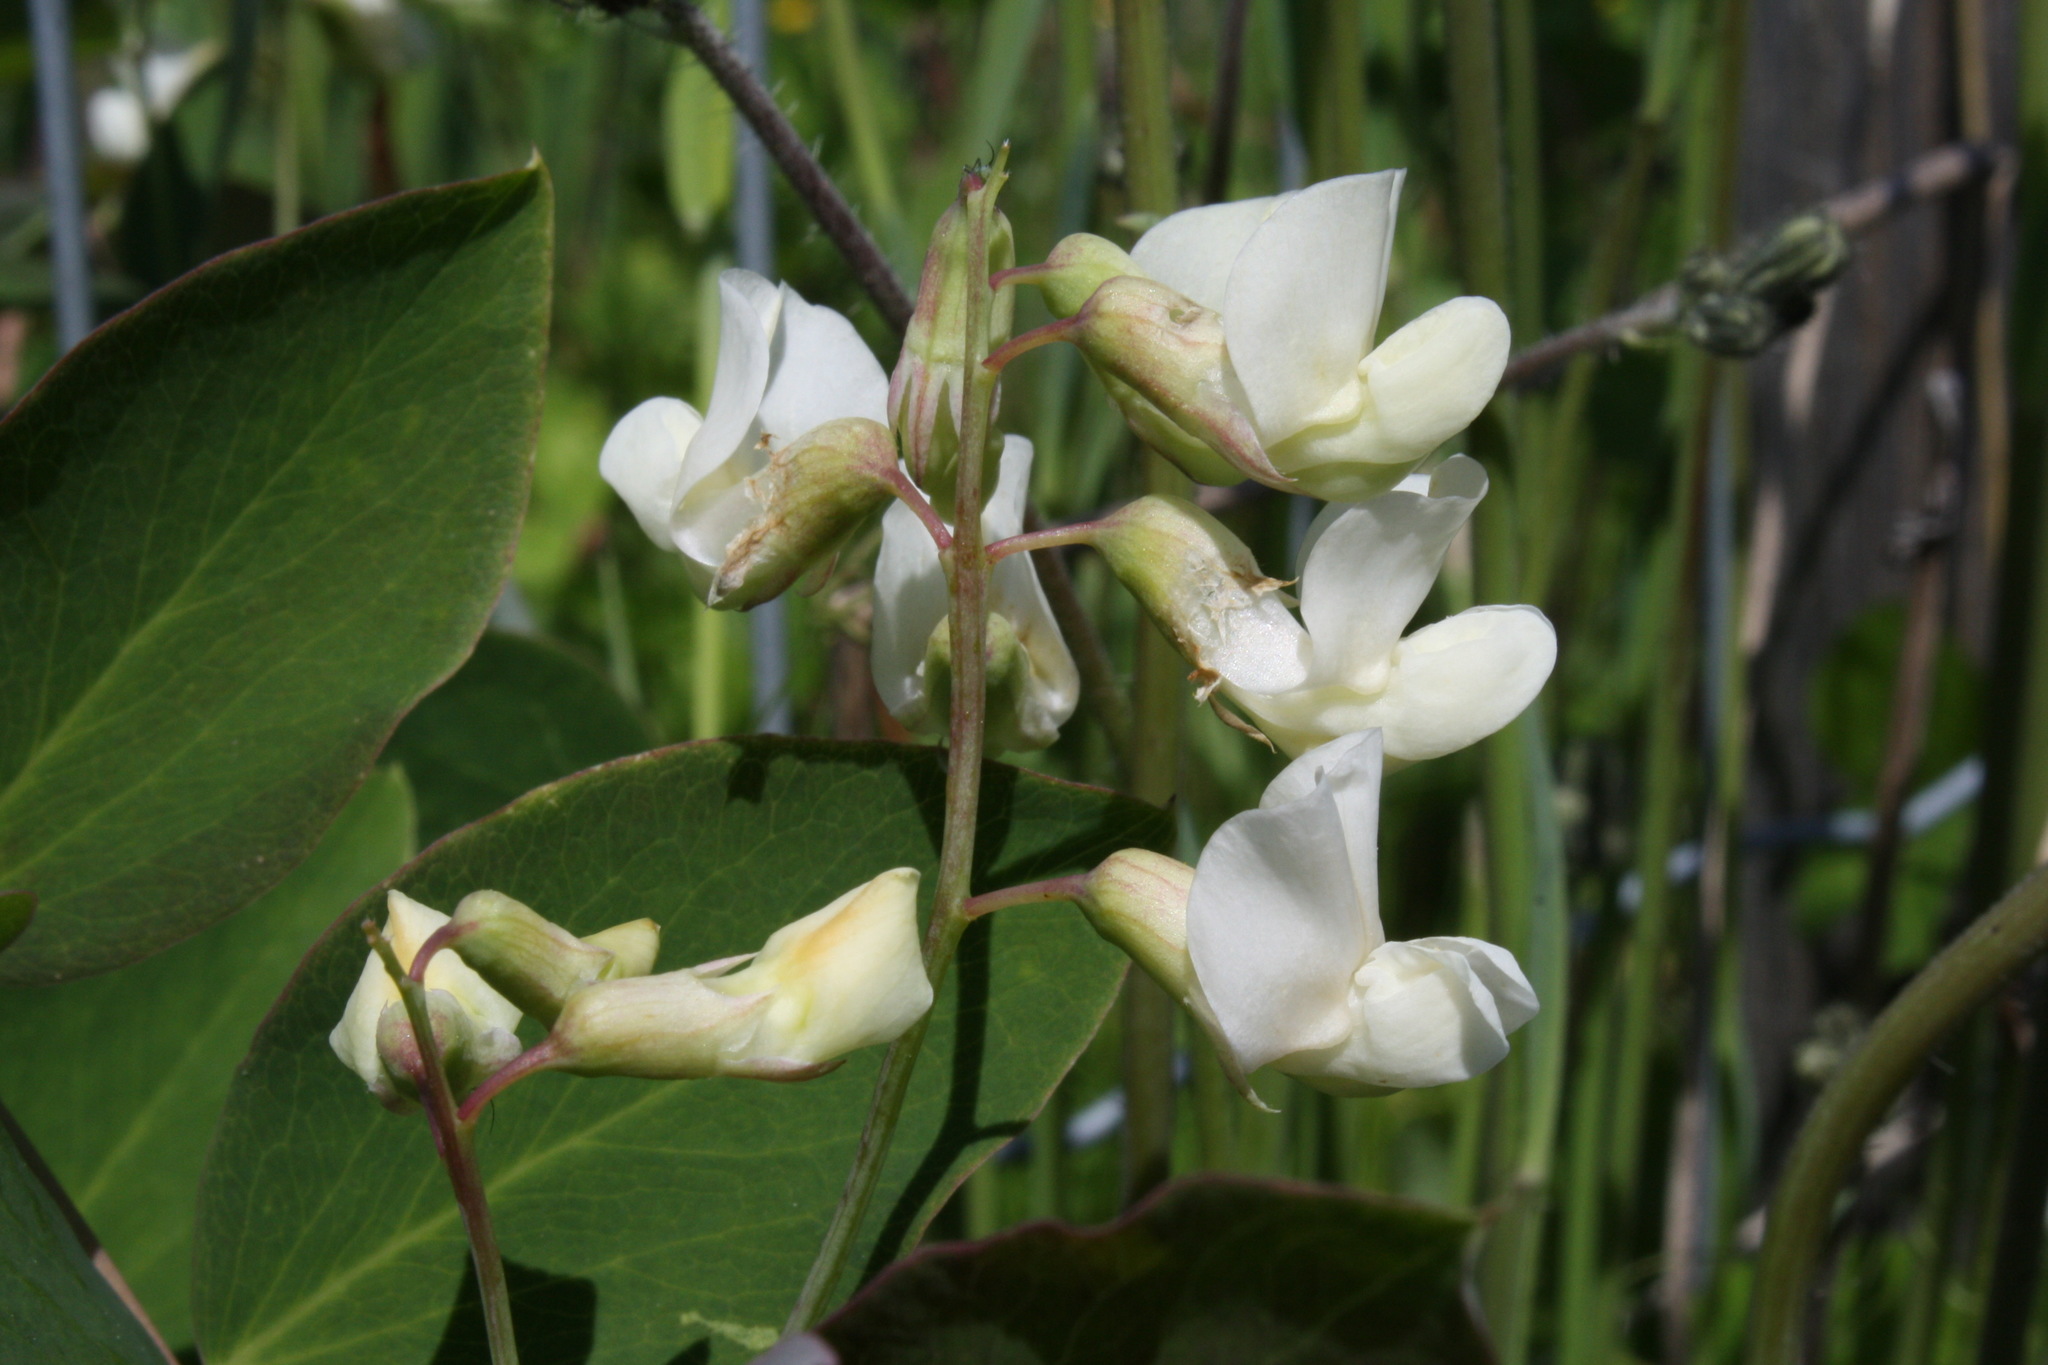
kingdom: Plantae
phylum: Tracheophyta
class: Magnoliopsida
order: Fabales
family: Fabaceae
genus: Lathyrus
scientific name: Lathyrus ochroleucus
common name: Pale vetchling
